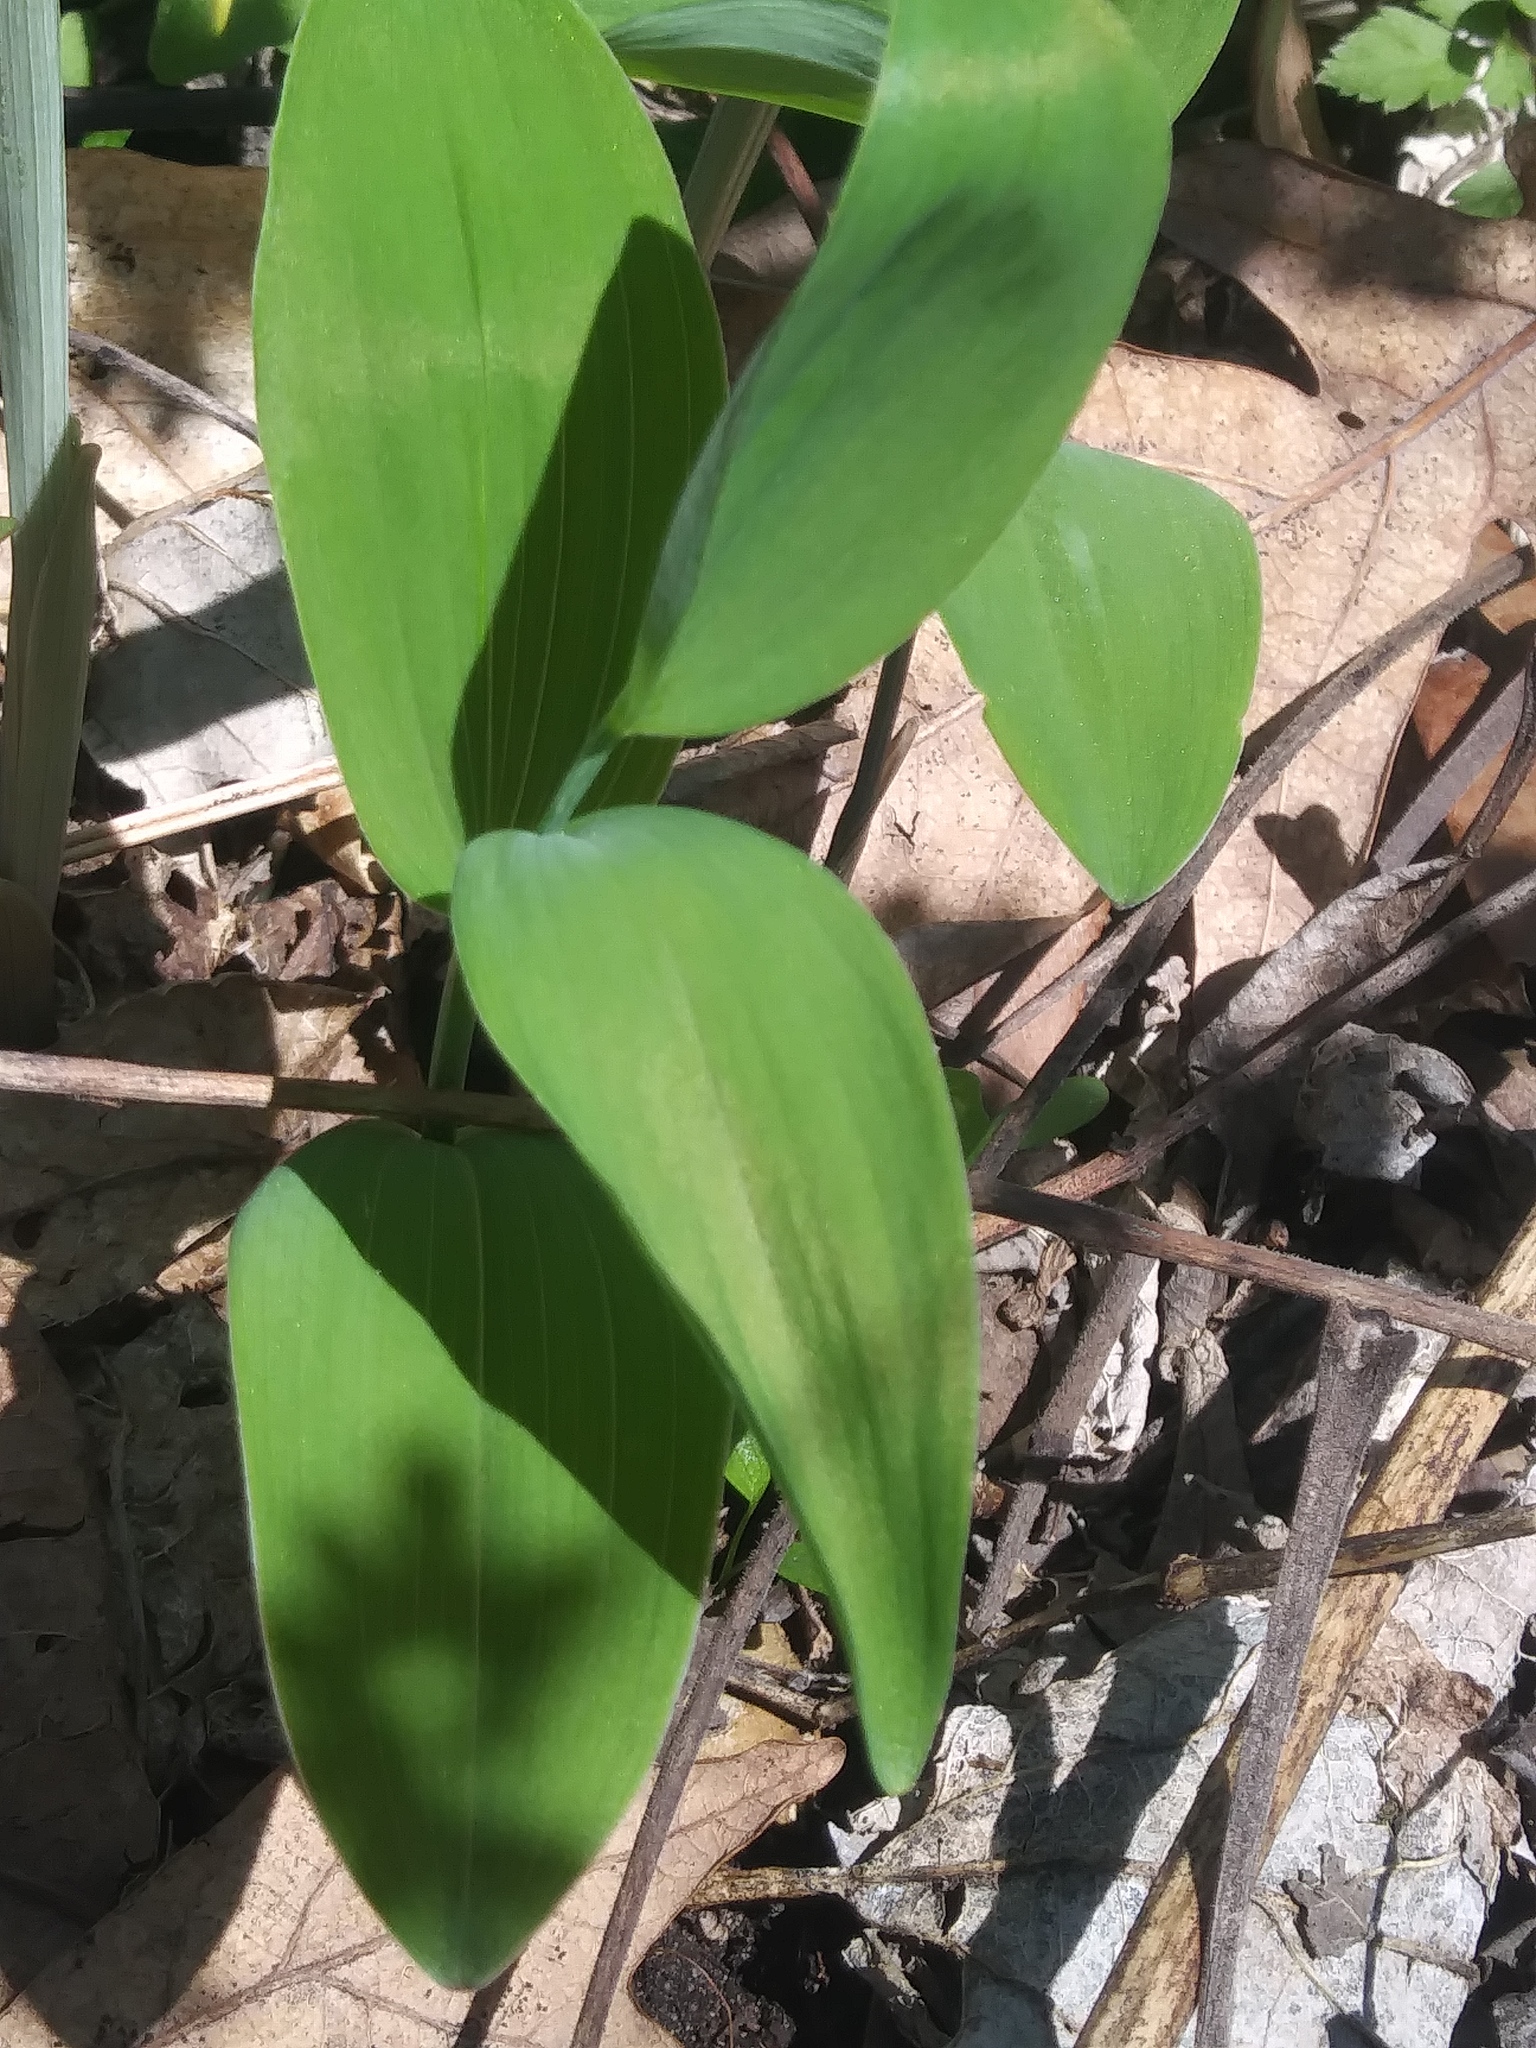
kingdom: Plantae
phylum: Tracheophyta
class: Liliopsida
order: Asparagales
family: Asparagaceae
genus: Polygonatum
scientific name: Polygonatum biflorum
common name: American solomon's-seal
